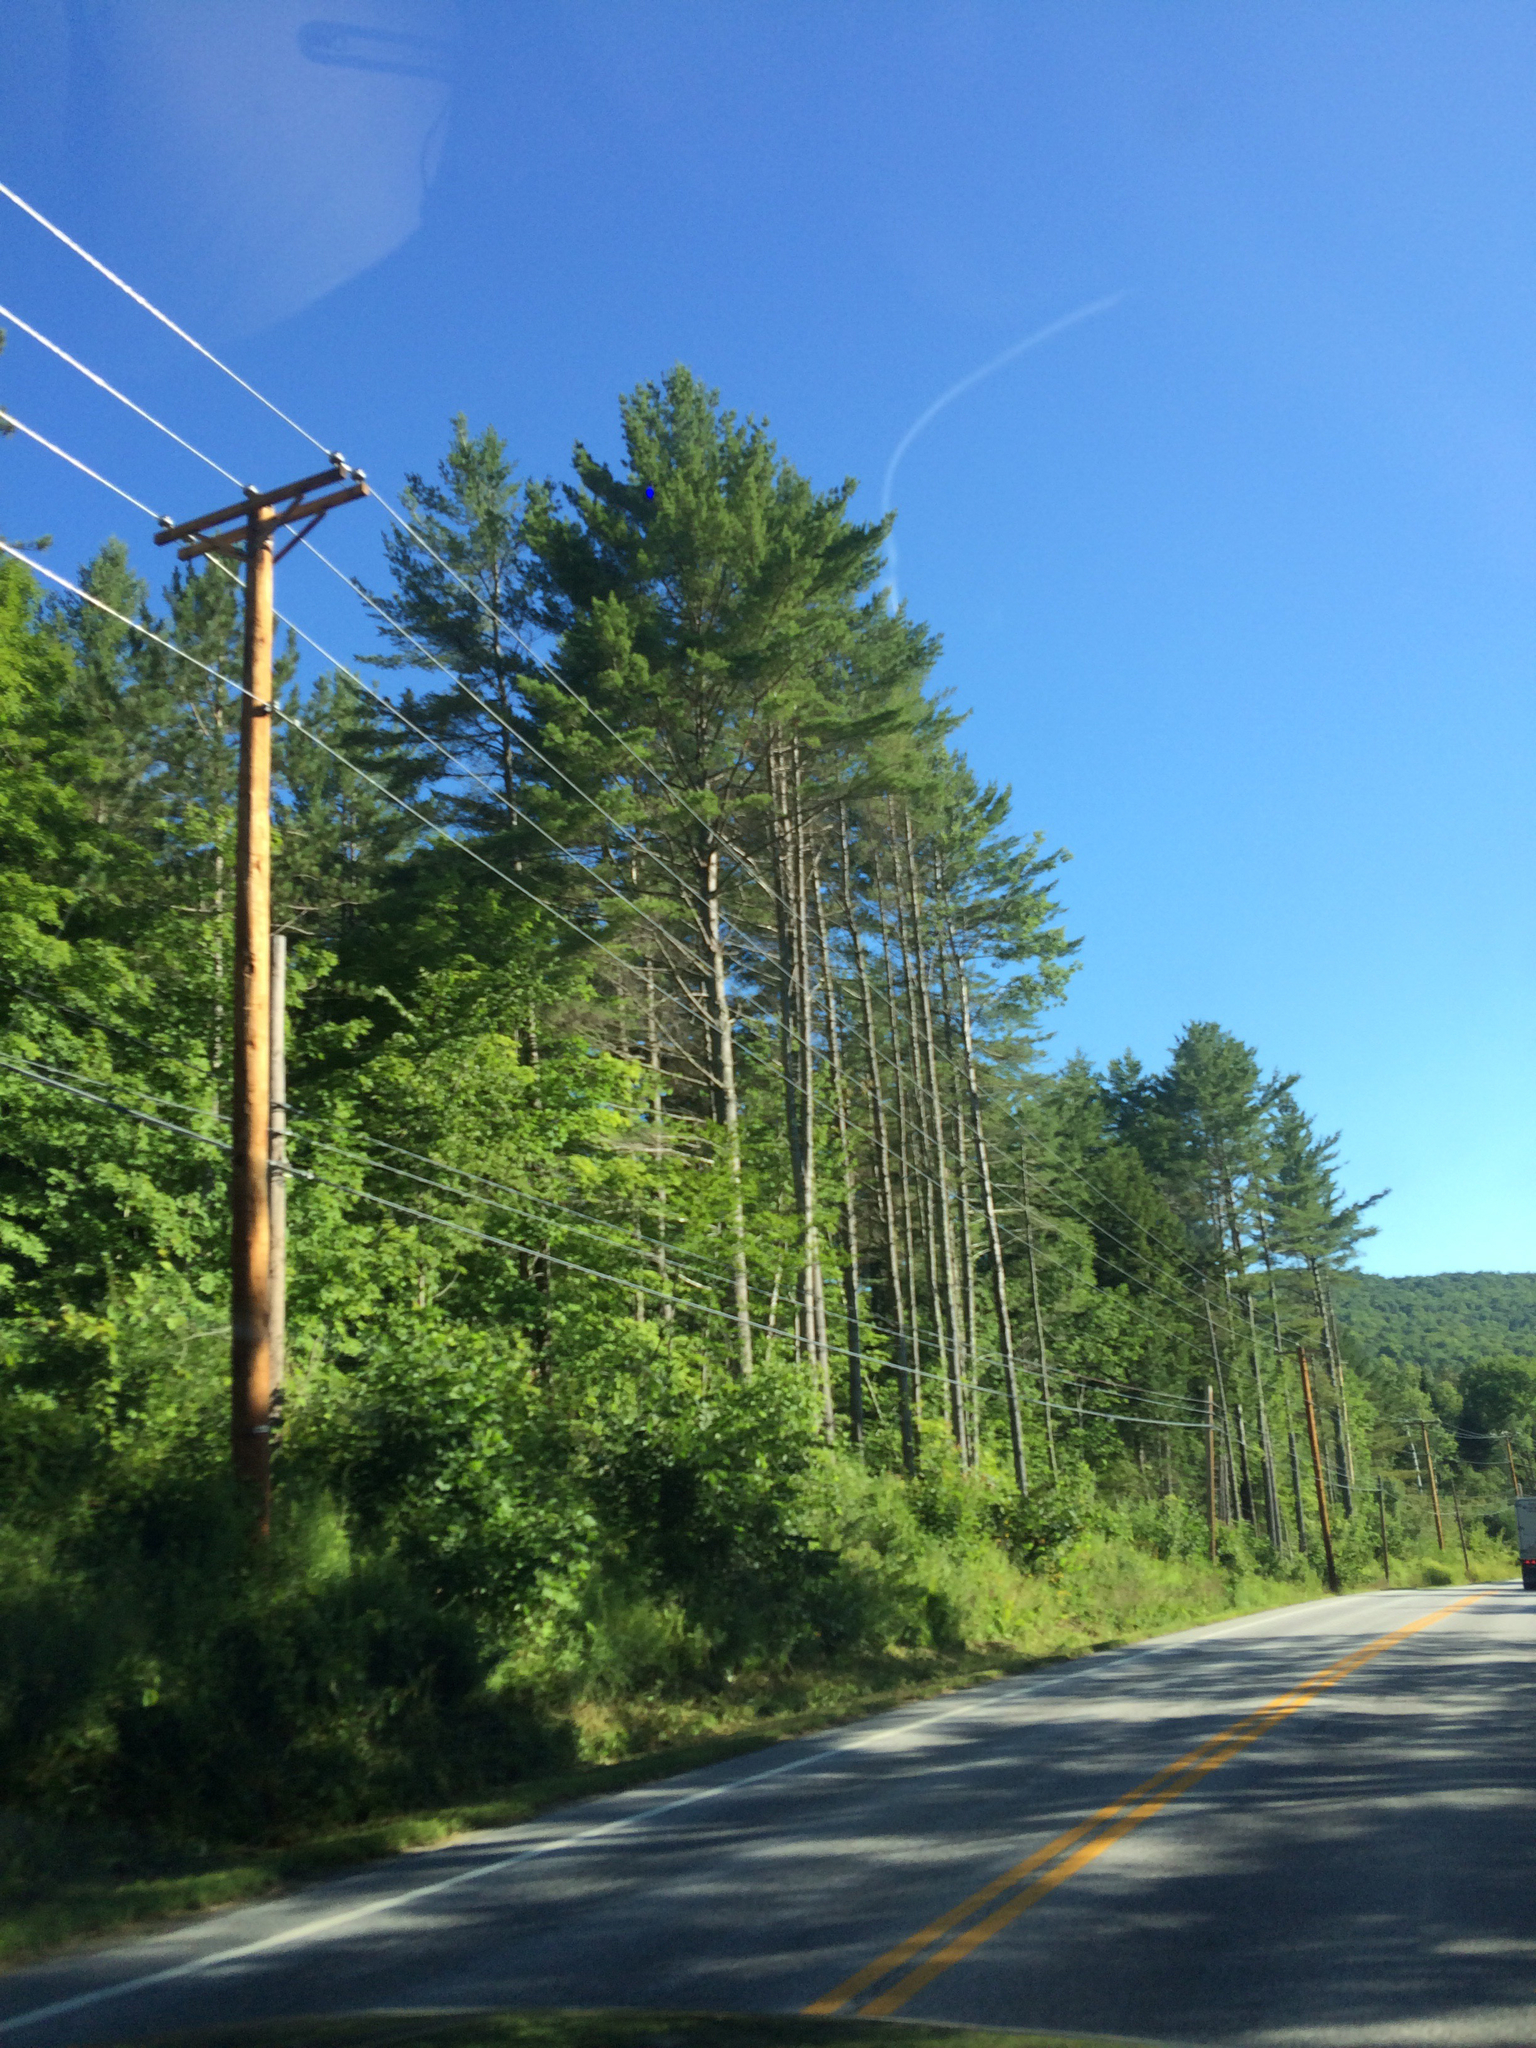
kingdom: Plantae
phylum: Tracheophyta
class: Pinopsida
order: Pinales
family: Pinaceae
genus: Pinus
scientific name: Pinus strobus
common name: Weymouth pine
